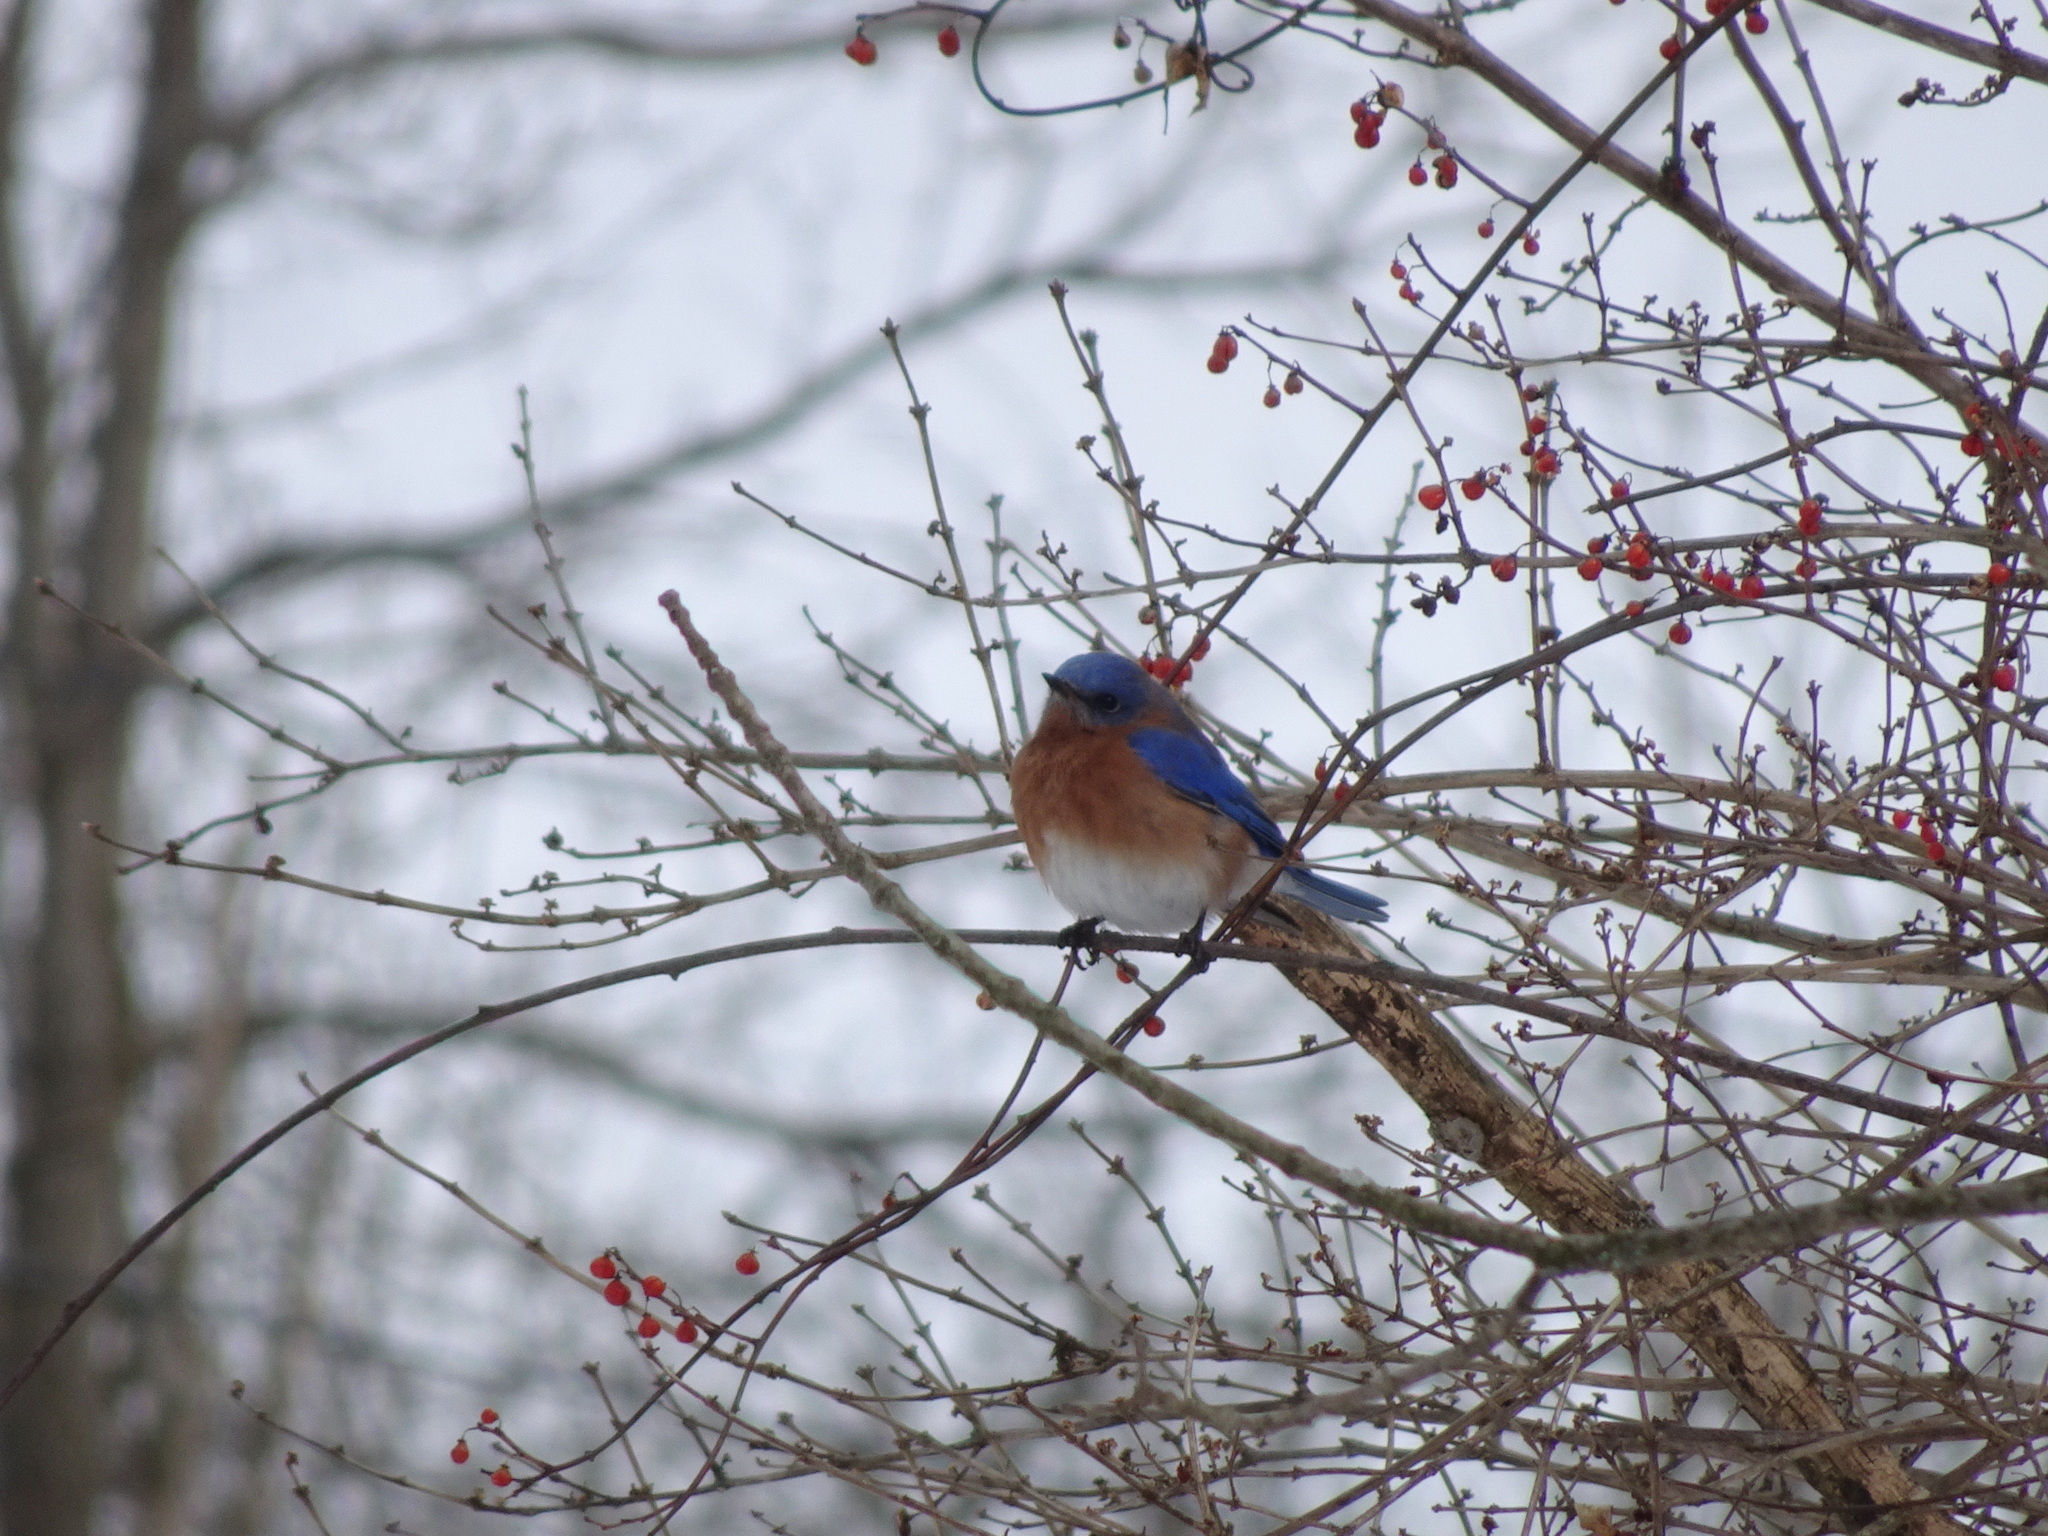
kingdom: Animalia
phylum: Chordata
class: Aves
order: Passeriformes
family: Turdidae
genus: Sialia
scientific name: Sialia sialis
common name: Eastern bluebird
